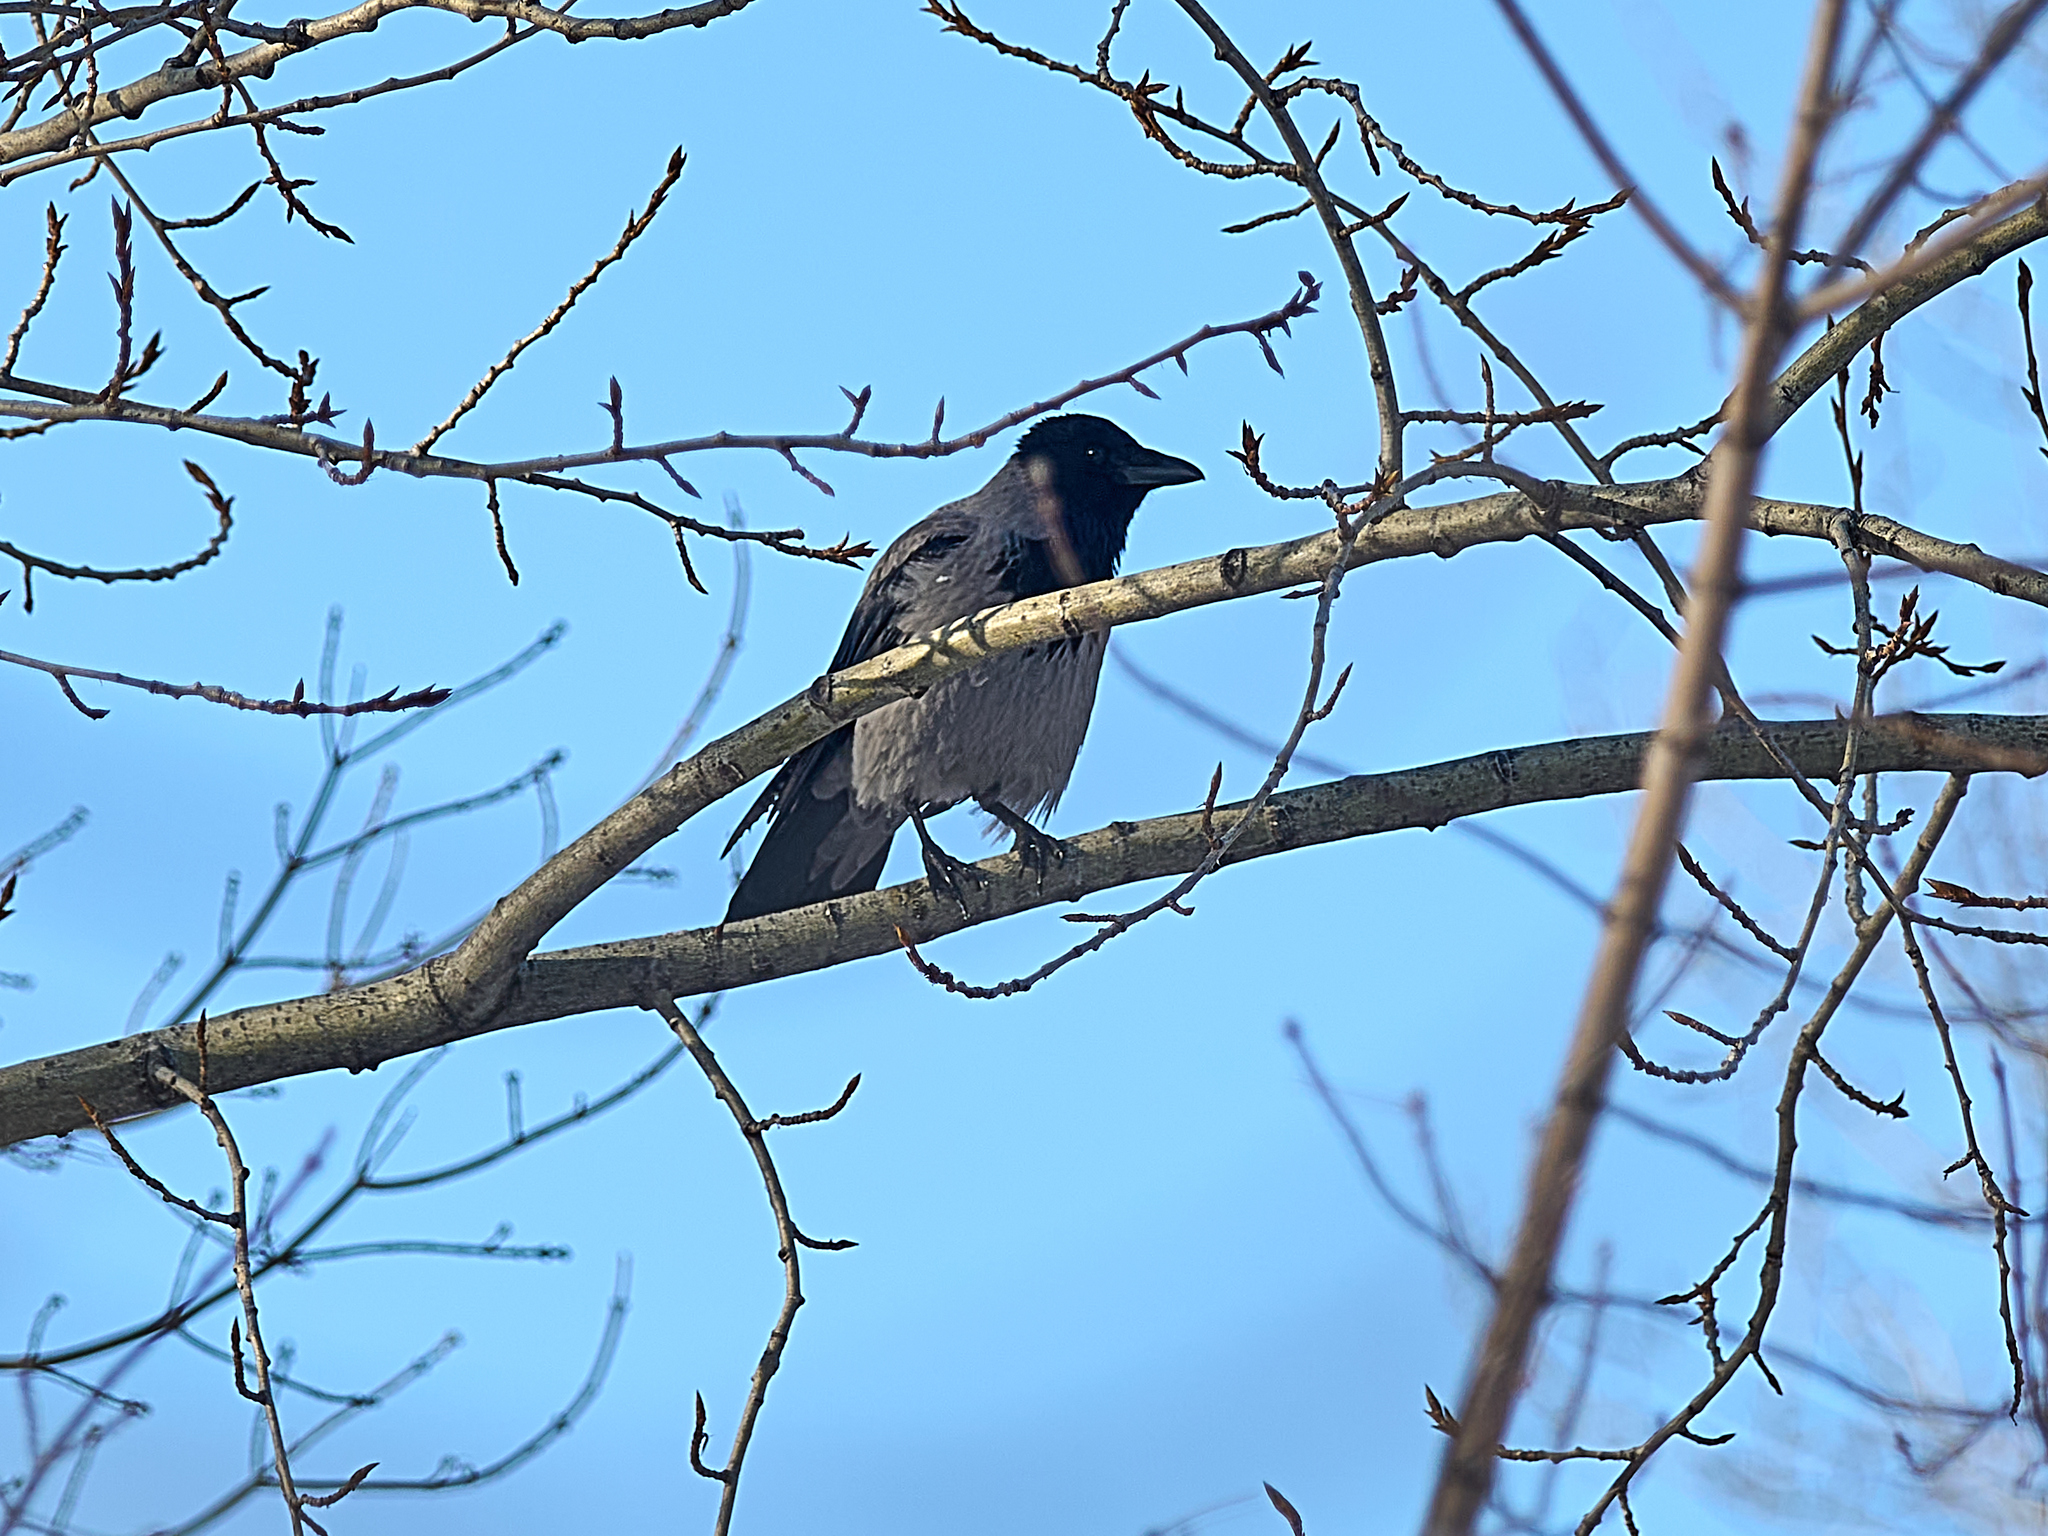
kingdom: Animalia
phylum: Chordata
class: Aves
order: Passeriformes
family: Corvidae
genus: Corvus
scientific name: Corvus cornix
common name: Hooded crow
